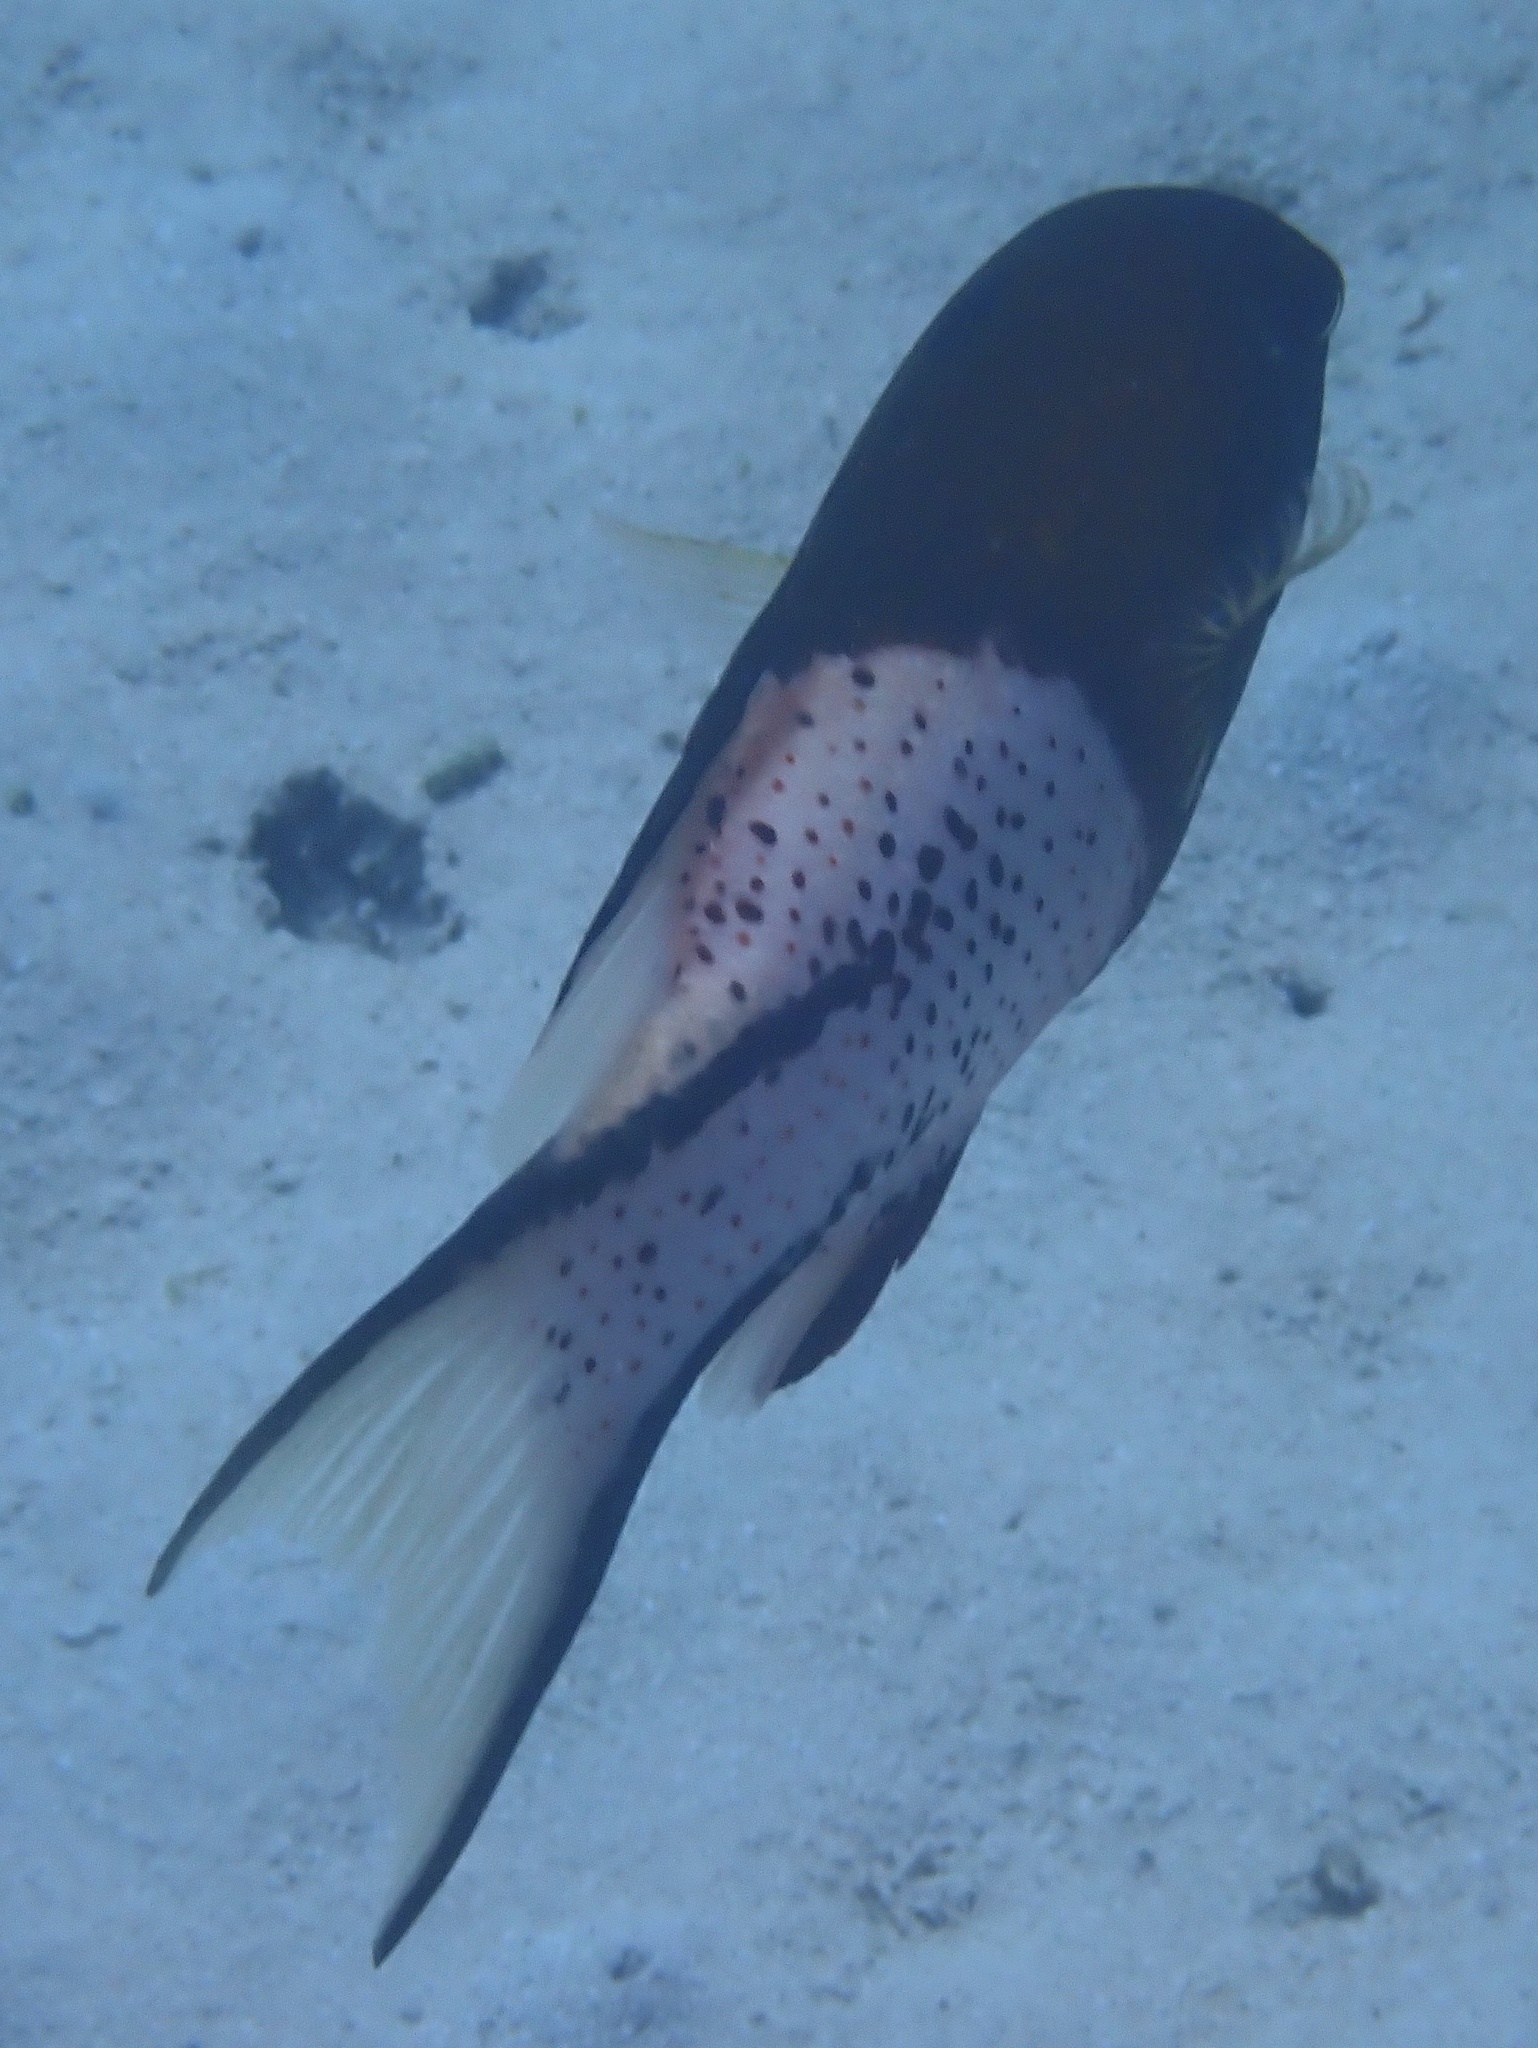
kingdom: Animalia
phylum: Chordata
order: Perciformes
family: Labridae
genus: Bodianus
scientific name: Bodianus anthioides
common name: Lyretail hogfish
